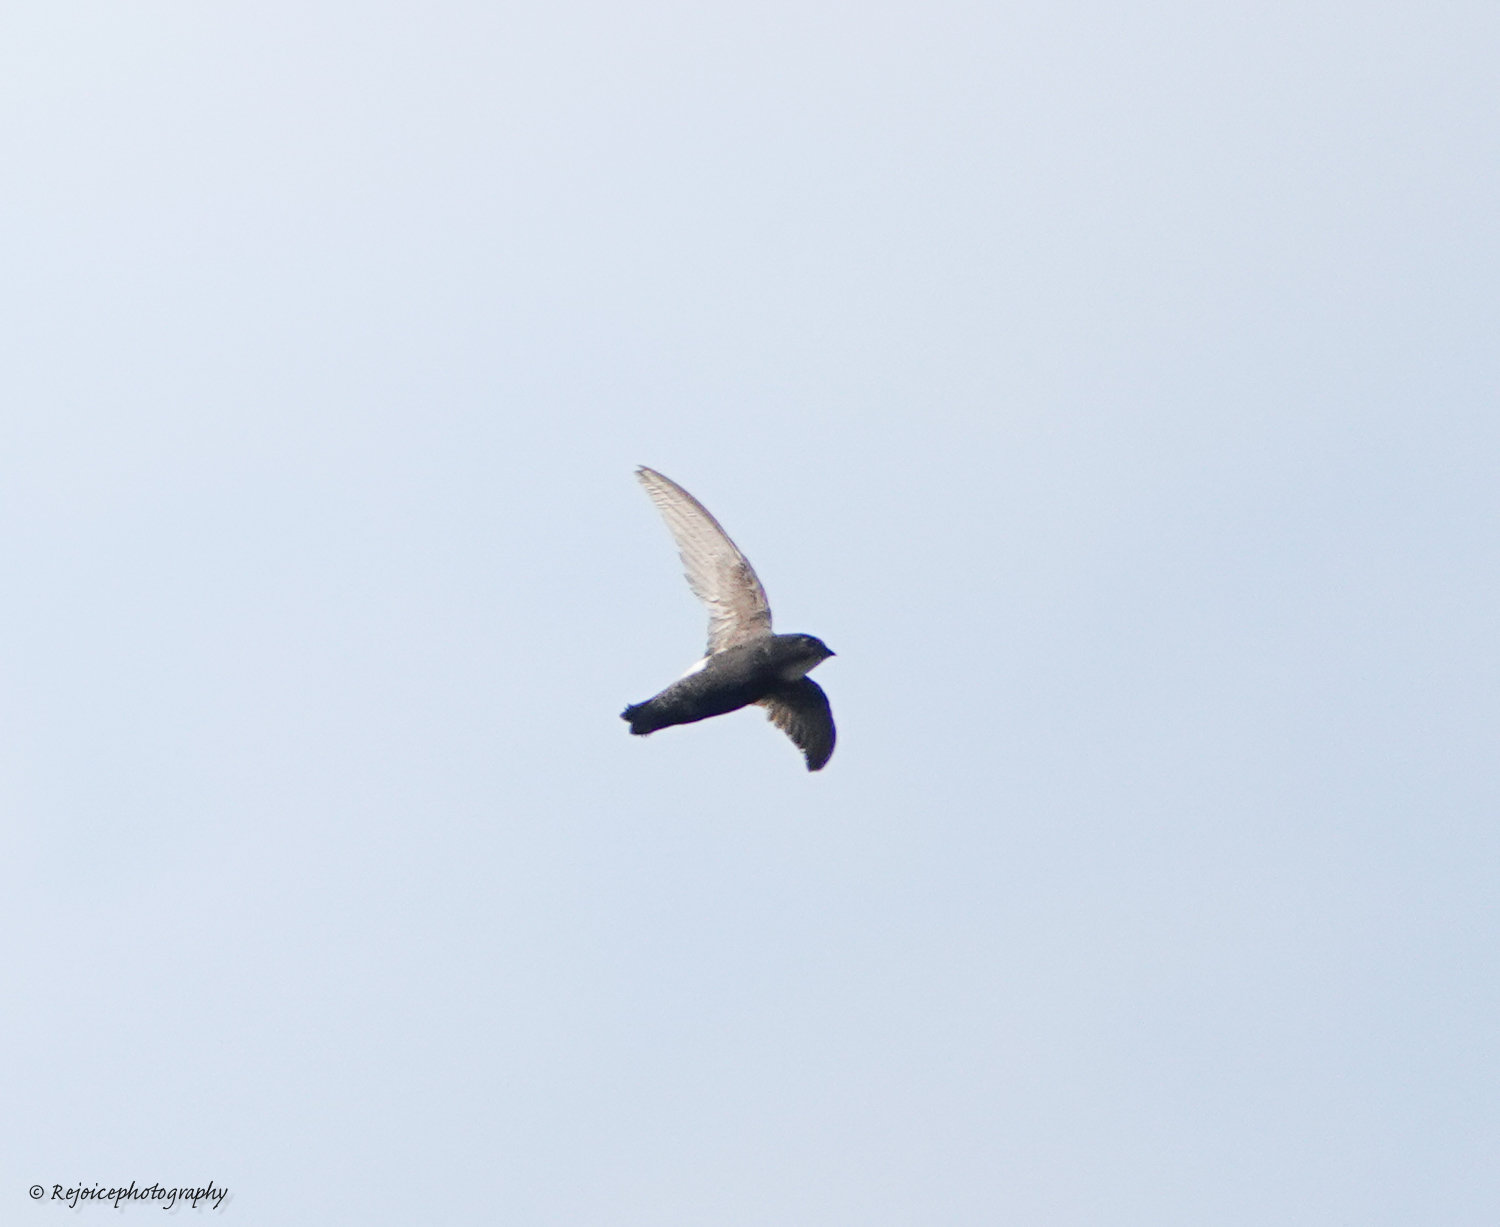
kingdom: Animalia
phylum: Chordata
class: Aves
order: Apodiformes
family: Apodidae
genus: Apus
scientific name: Apus nipalensis
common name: House swift
